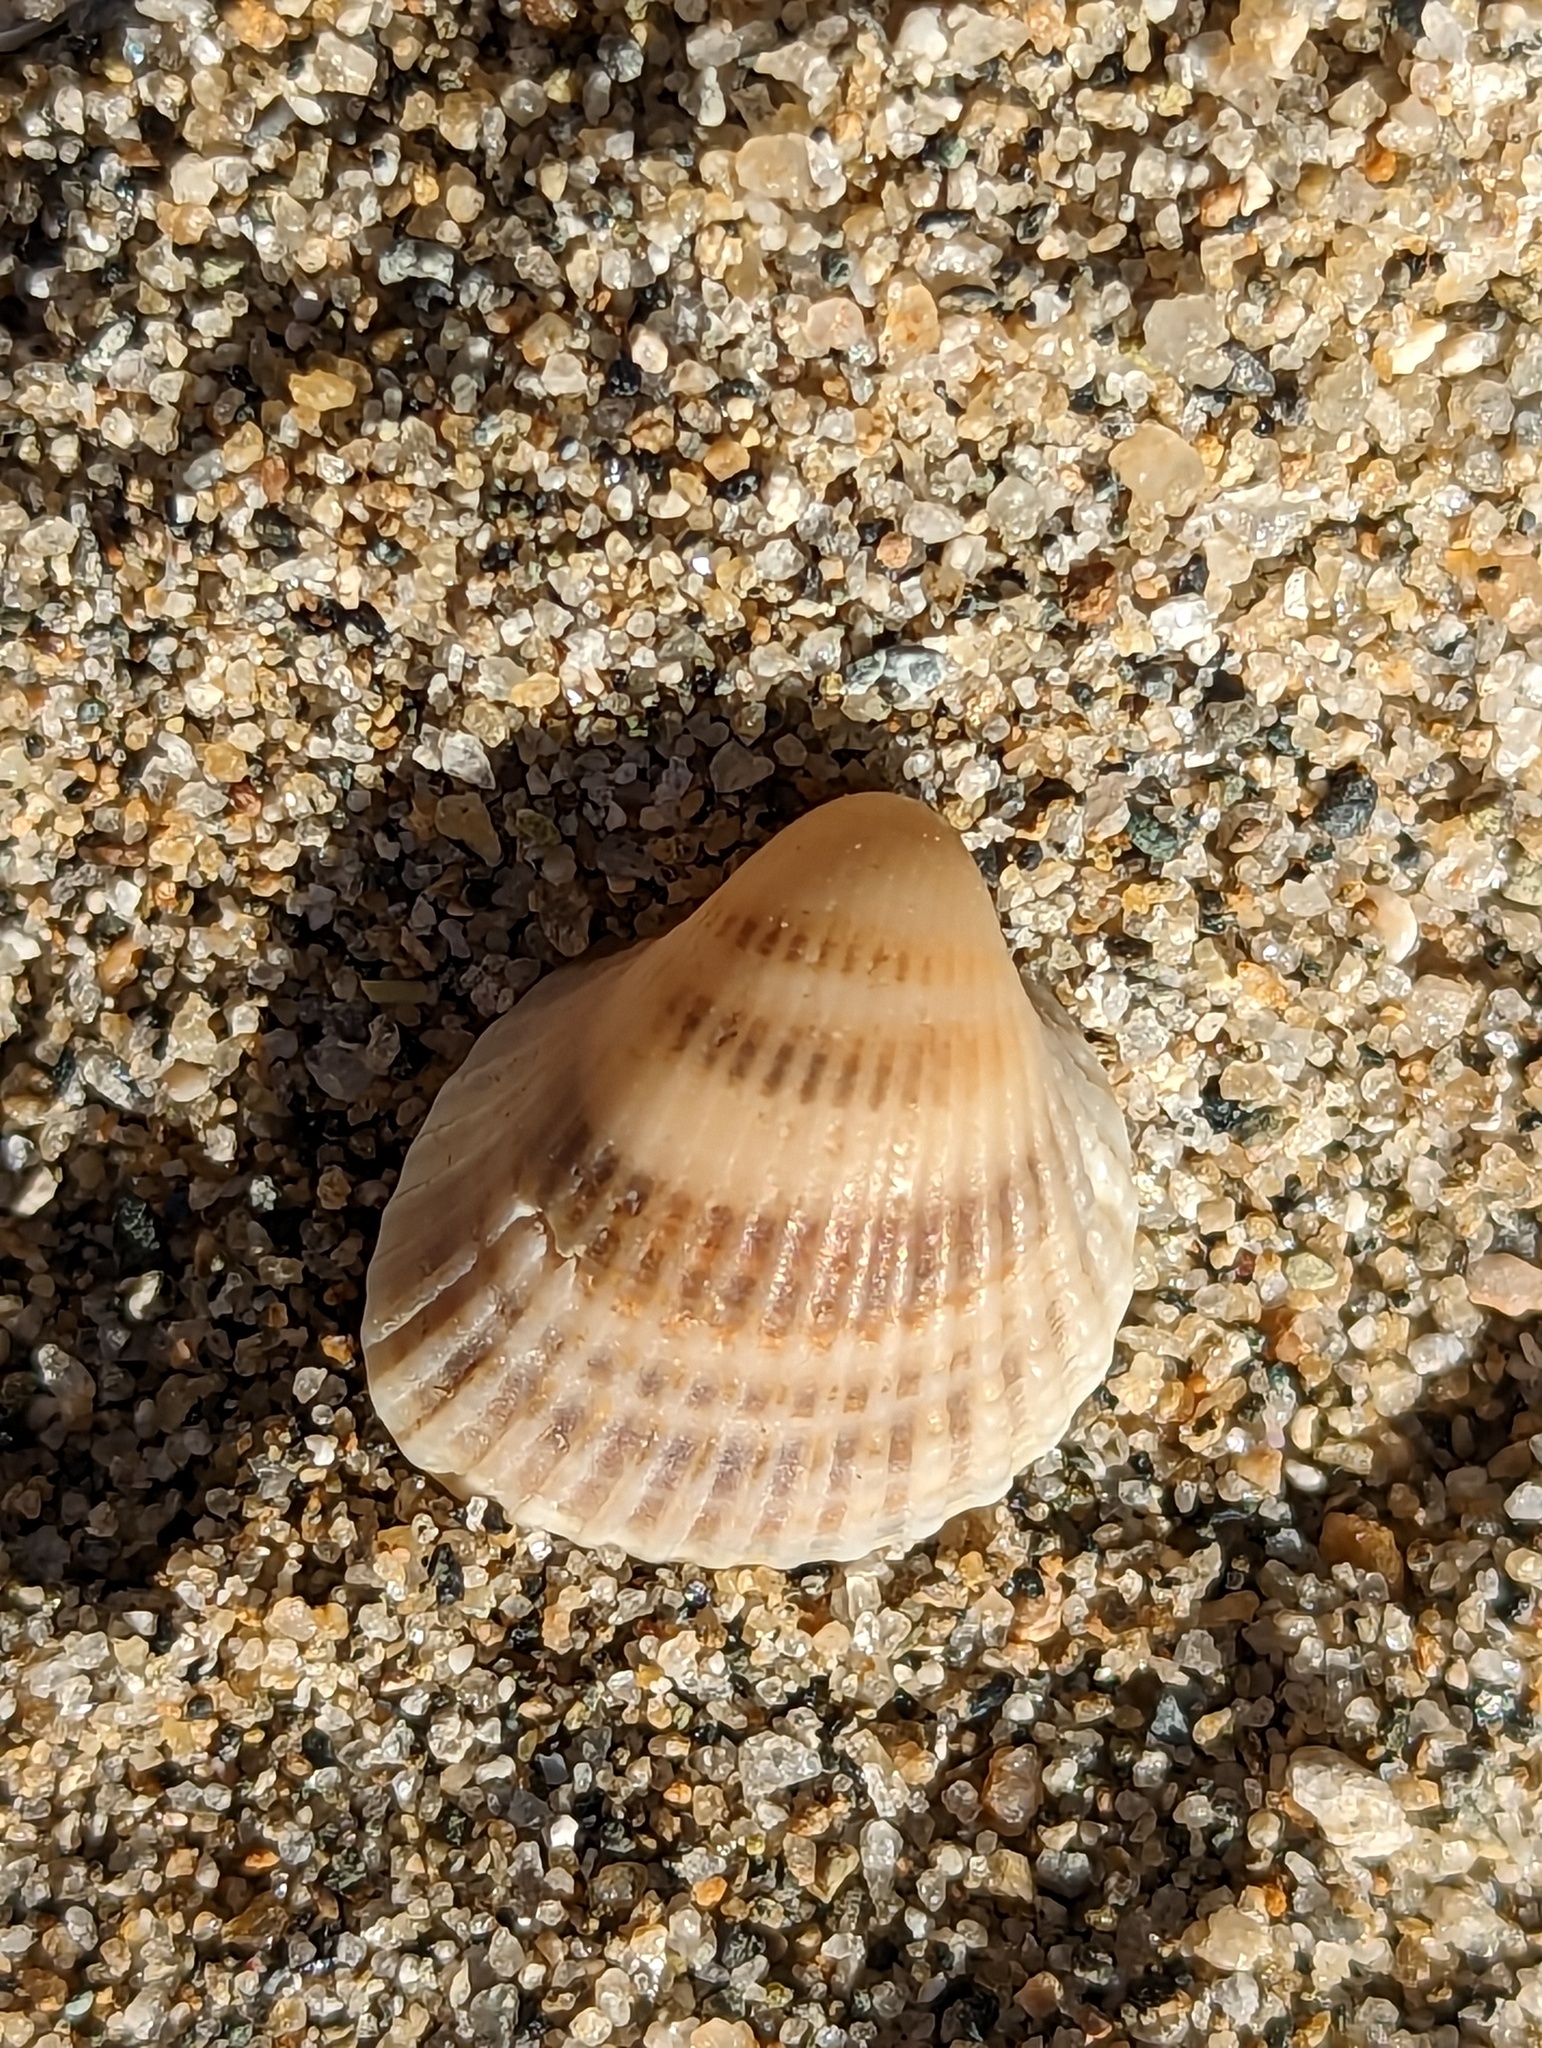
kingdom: Animalia
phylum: Mollusca
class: Bivalvia
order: Arcida
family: Arcidae
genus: Anadara
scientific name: Anadara chemnitzii
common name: Chemnitz's triangular ark
